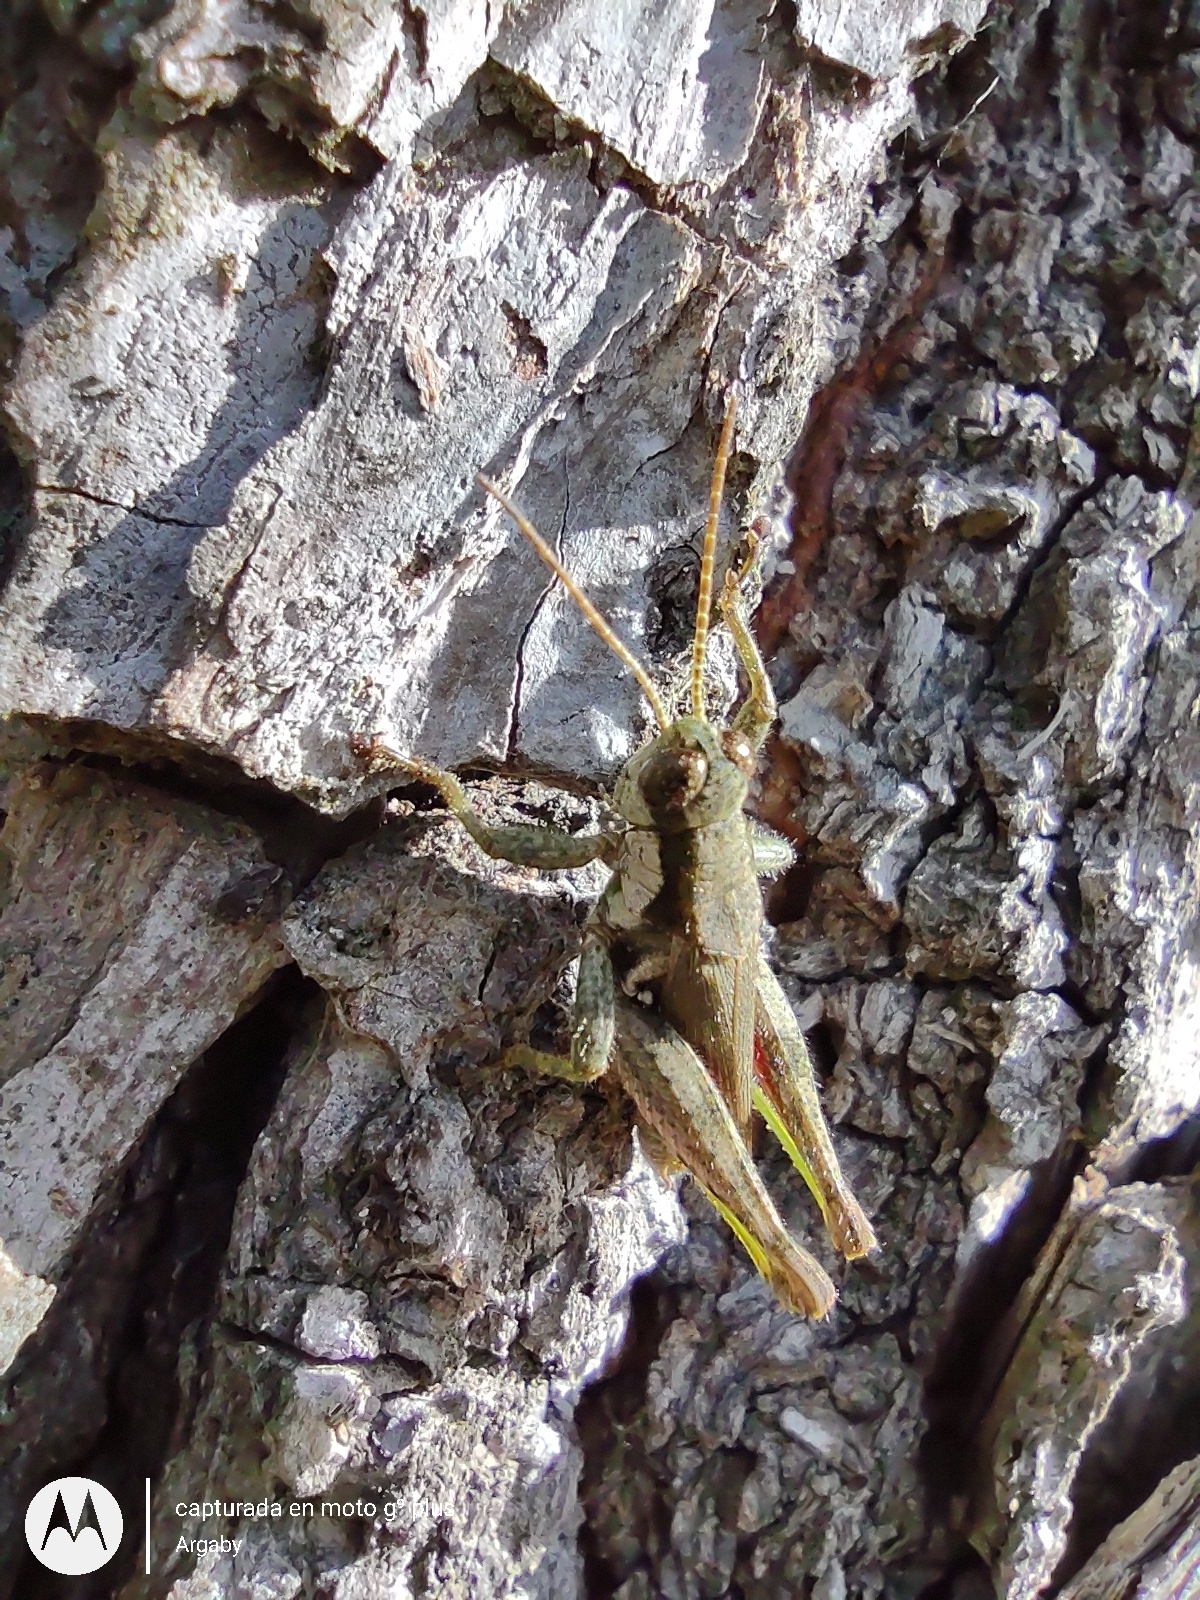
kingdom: Animalia
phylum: Arthropoda
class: Insecta
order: Orthoptera
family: Acrididae
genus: Ronderosia
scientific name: Ronderosia bergii
